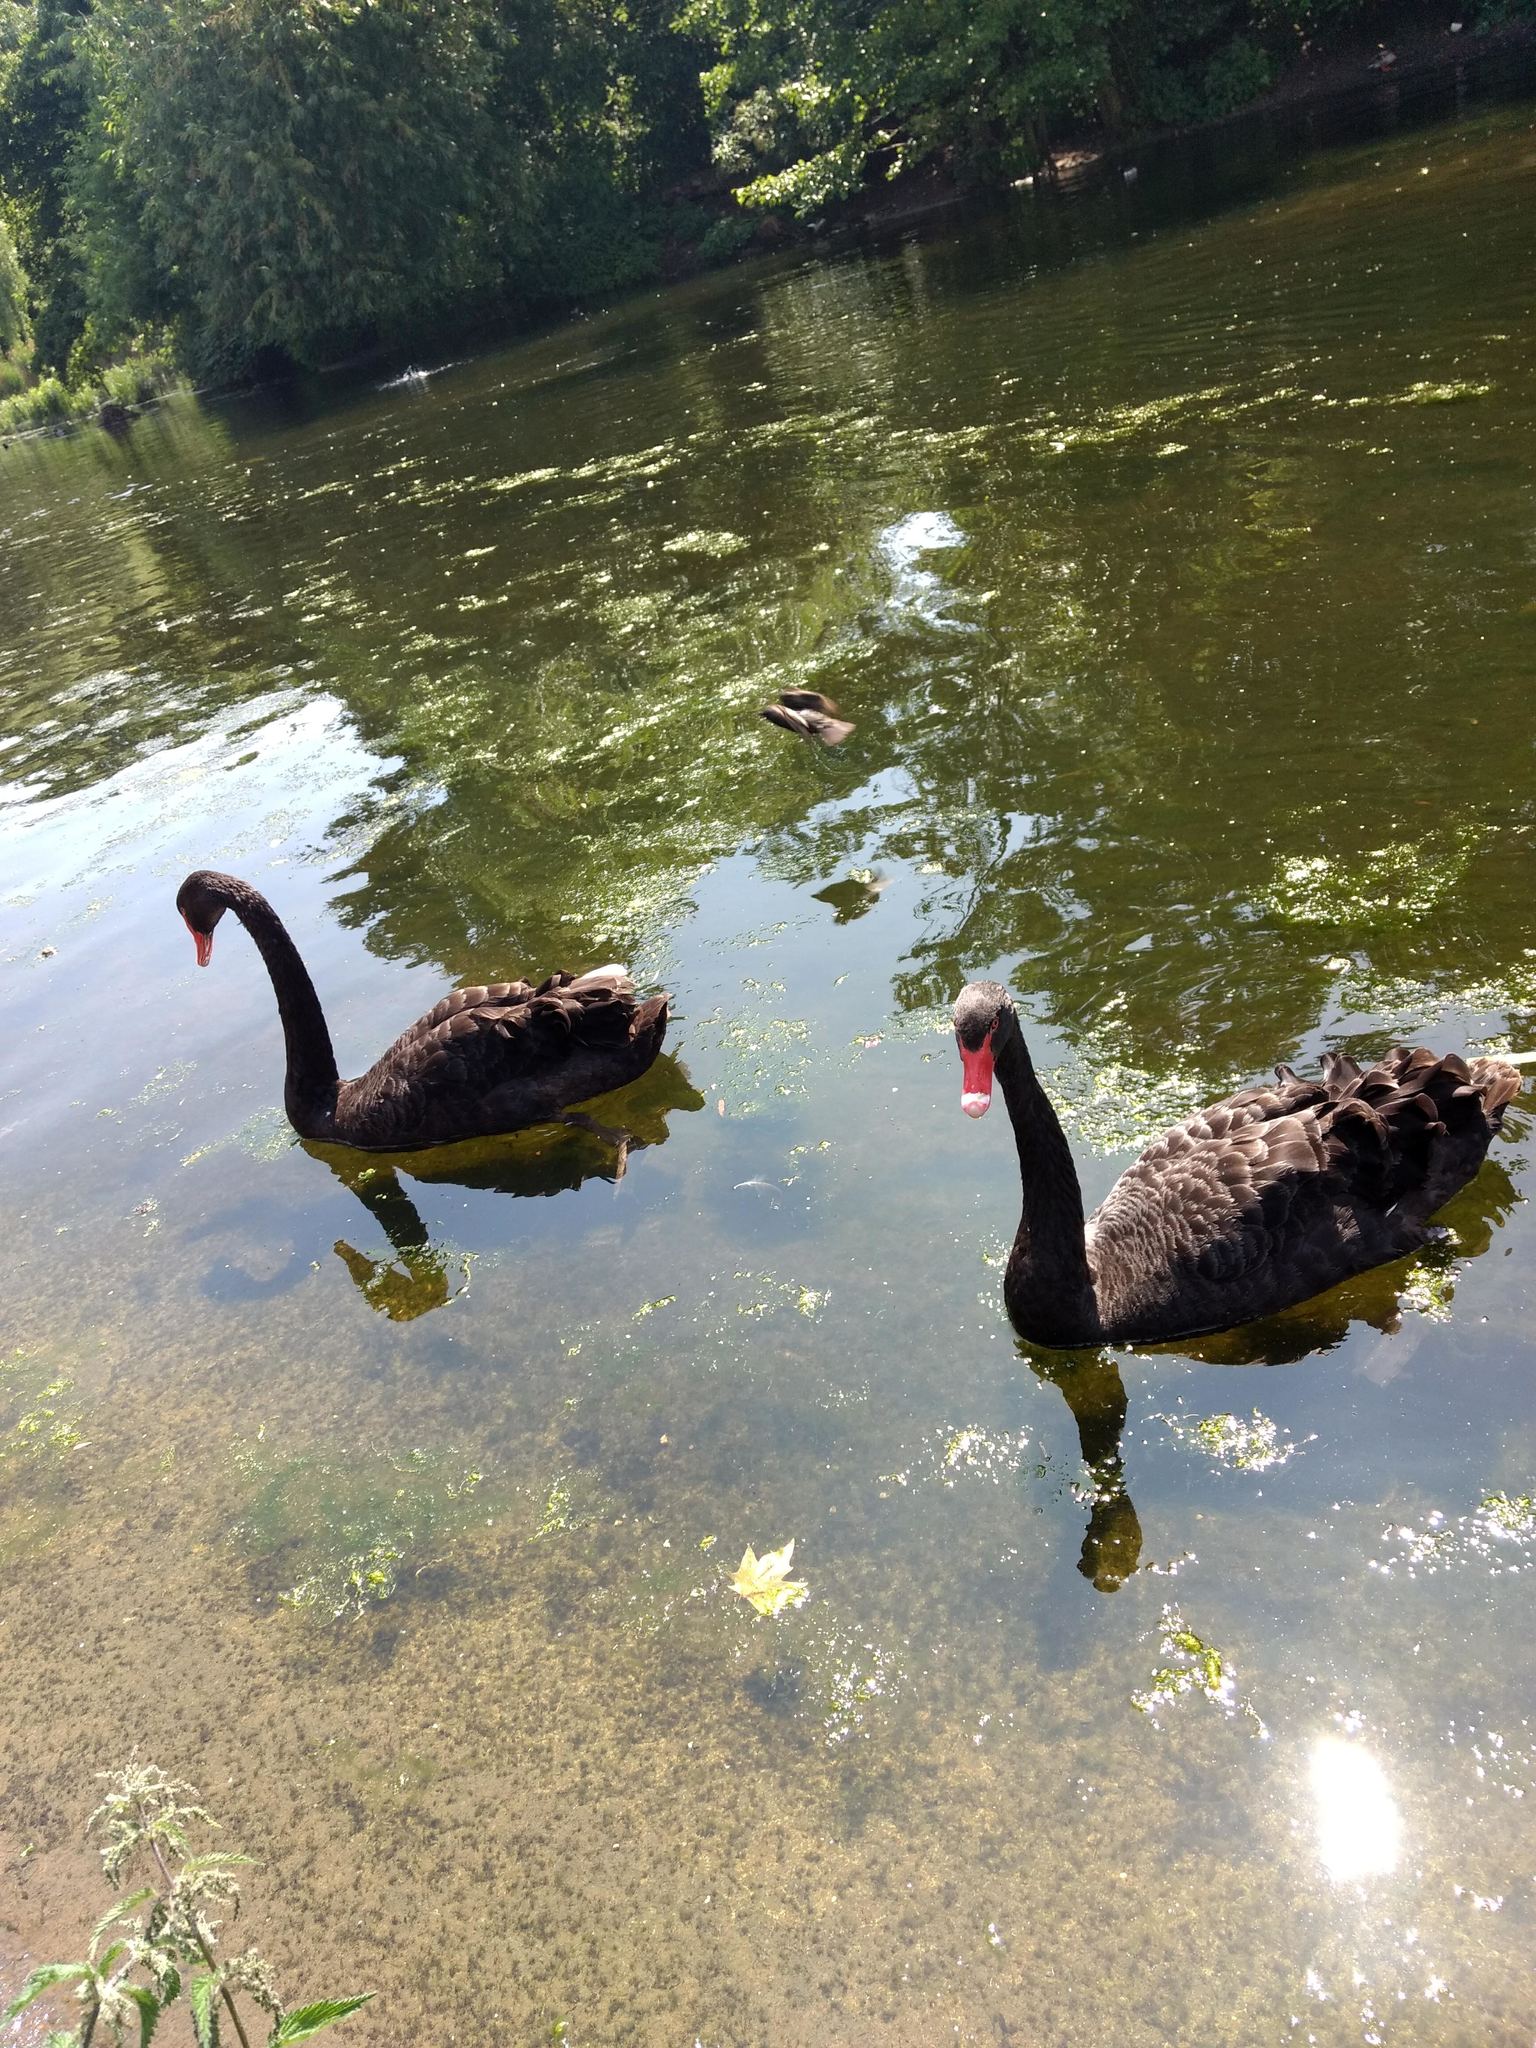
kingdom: Animalia
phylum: Chordata
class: Aves
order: Anseriformes
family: Anatidae
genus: Cygnus
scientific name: Cygnus atratus
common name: Black swan
